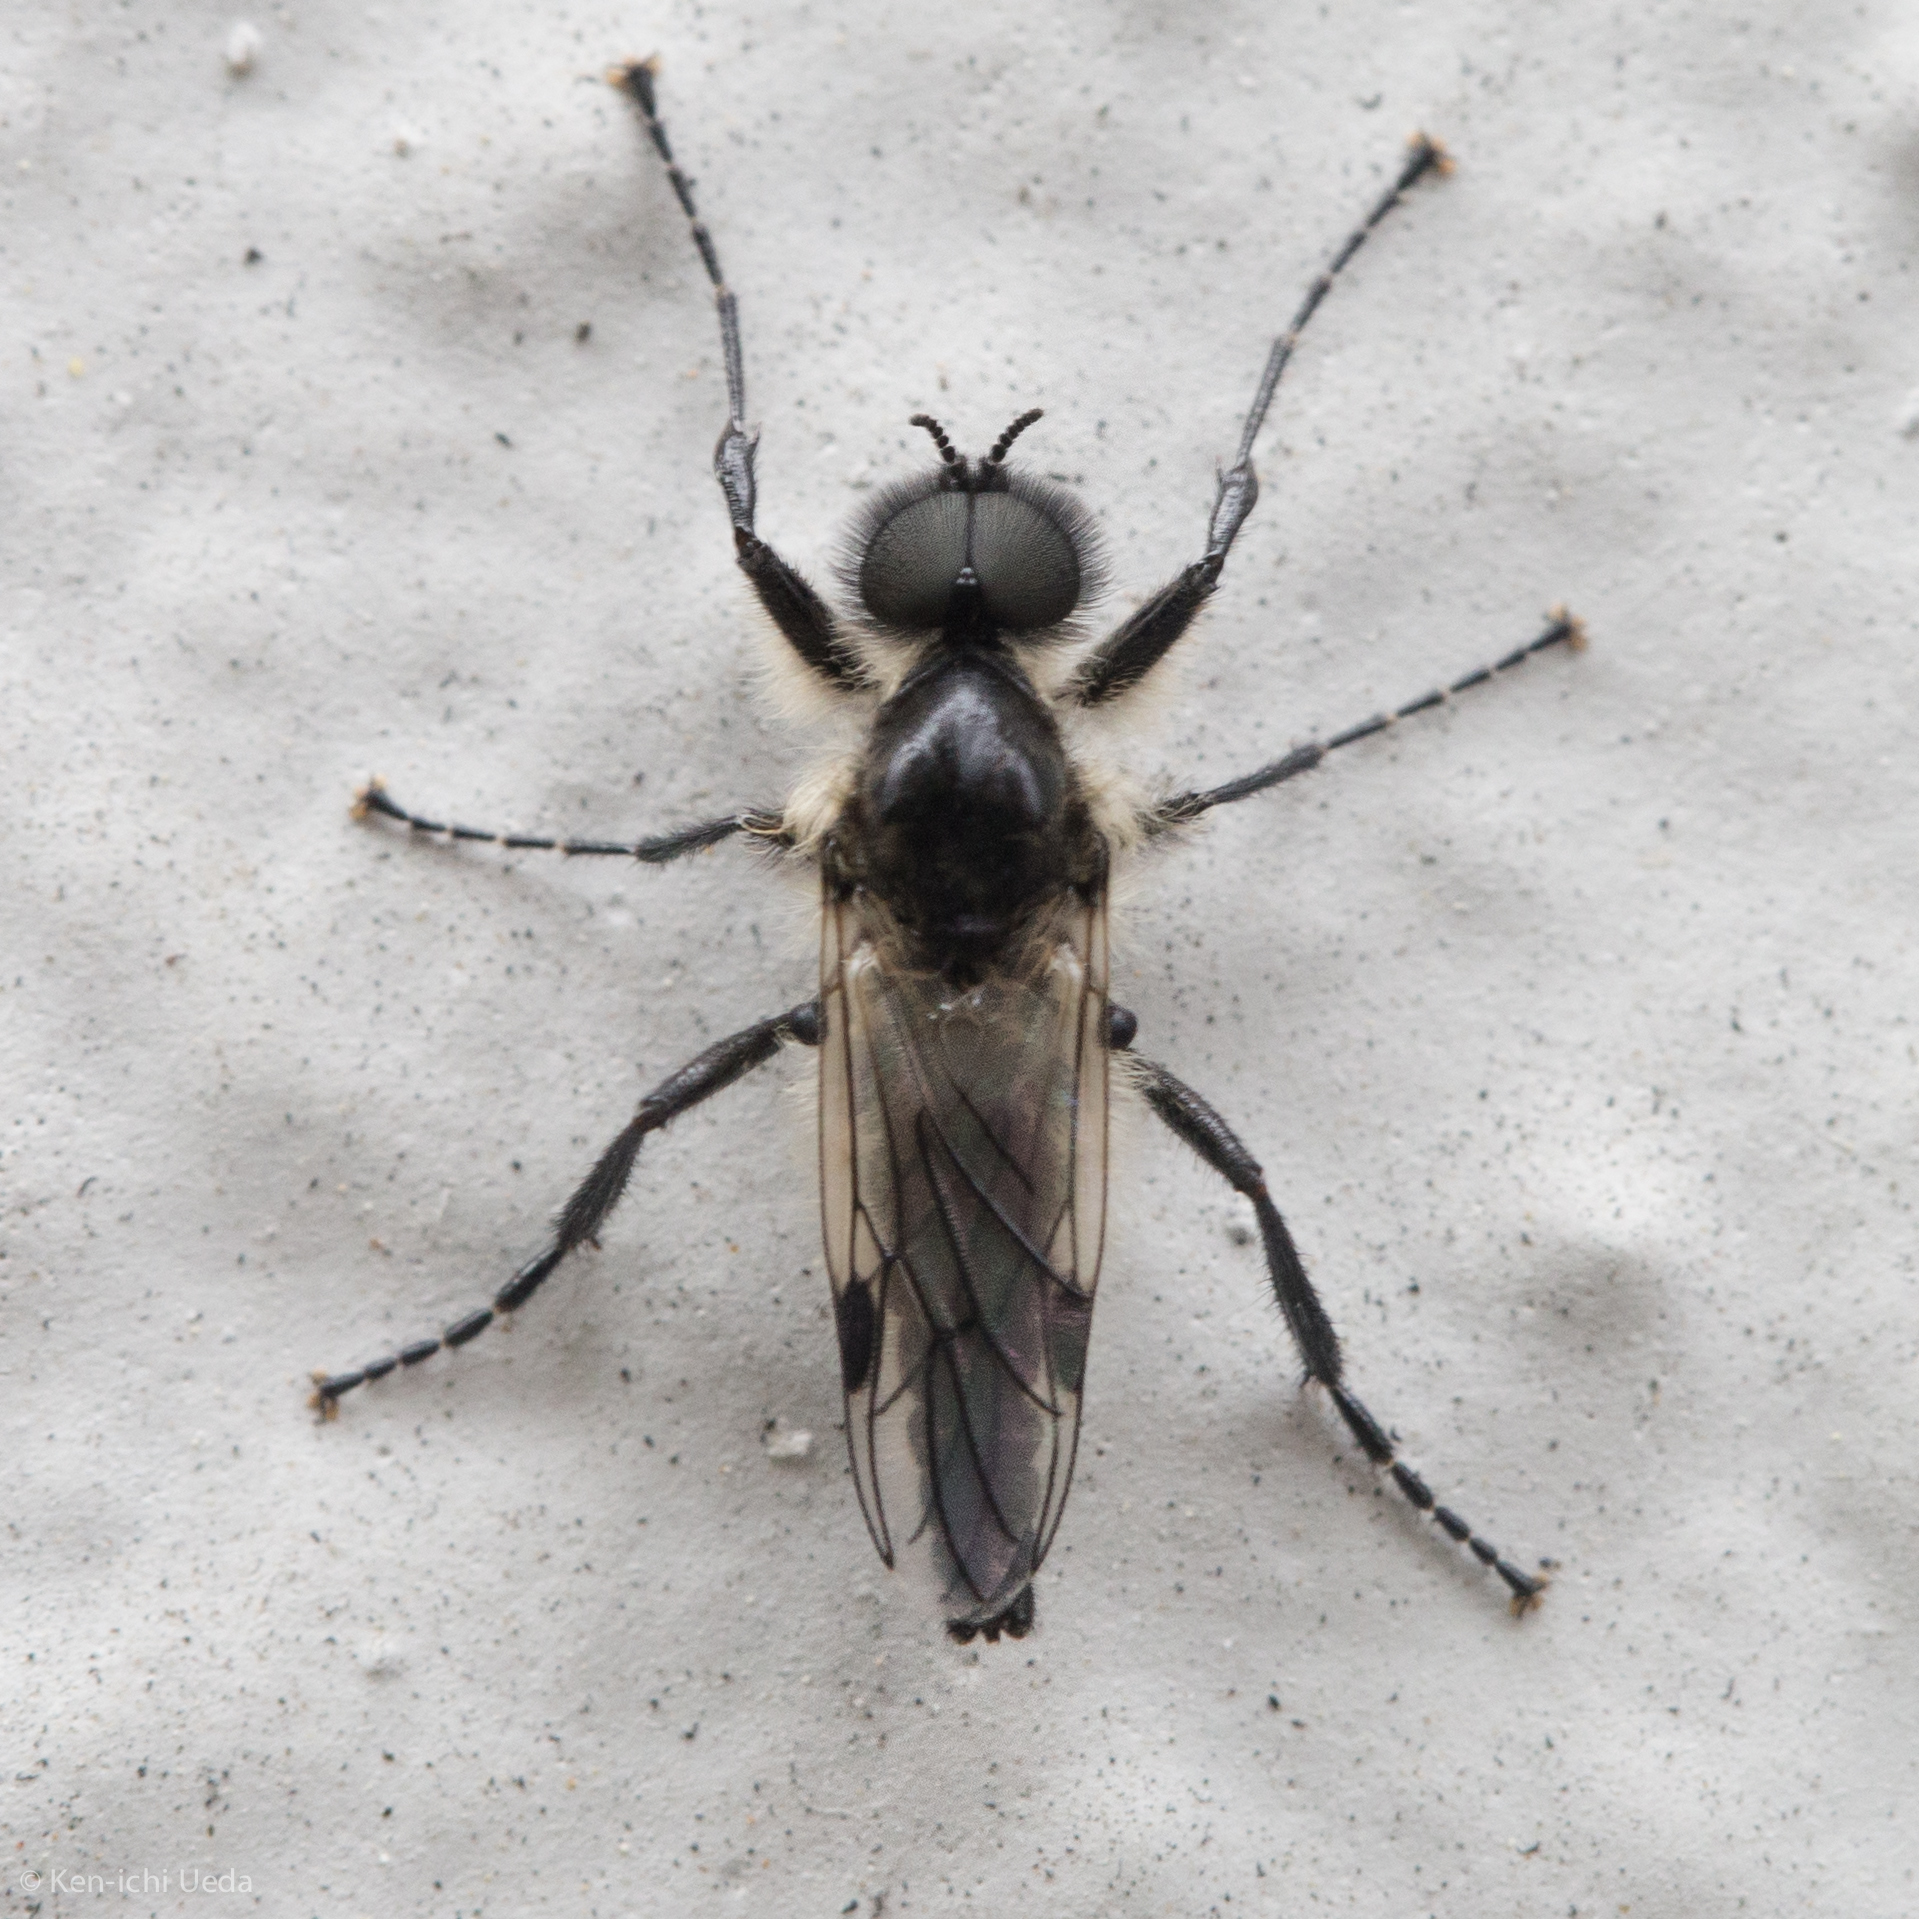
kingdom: Animalia
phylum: Arthropoda
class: Insecta
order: Diptera
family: Bibionidae
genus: Bibio
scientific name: Bibio albipennis
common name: White-winged march fly
